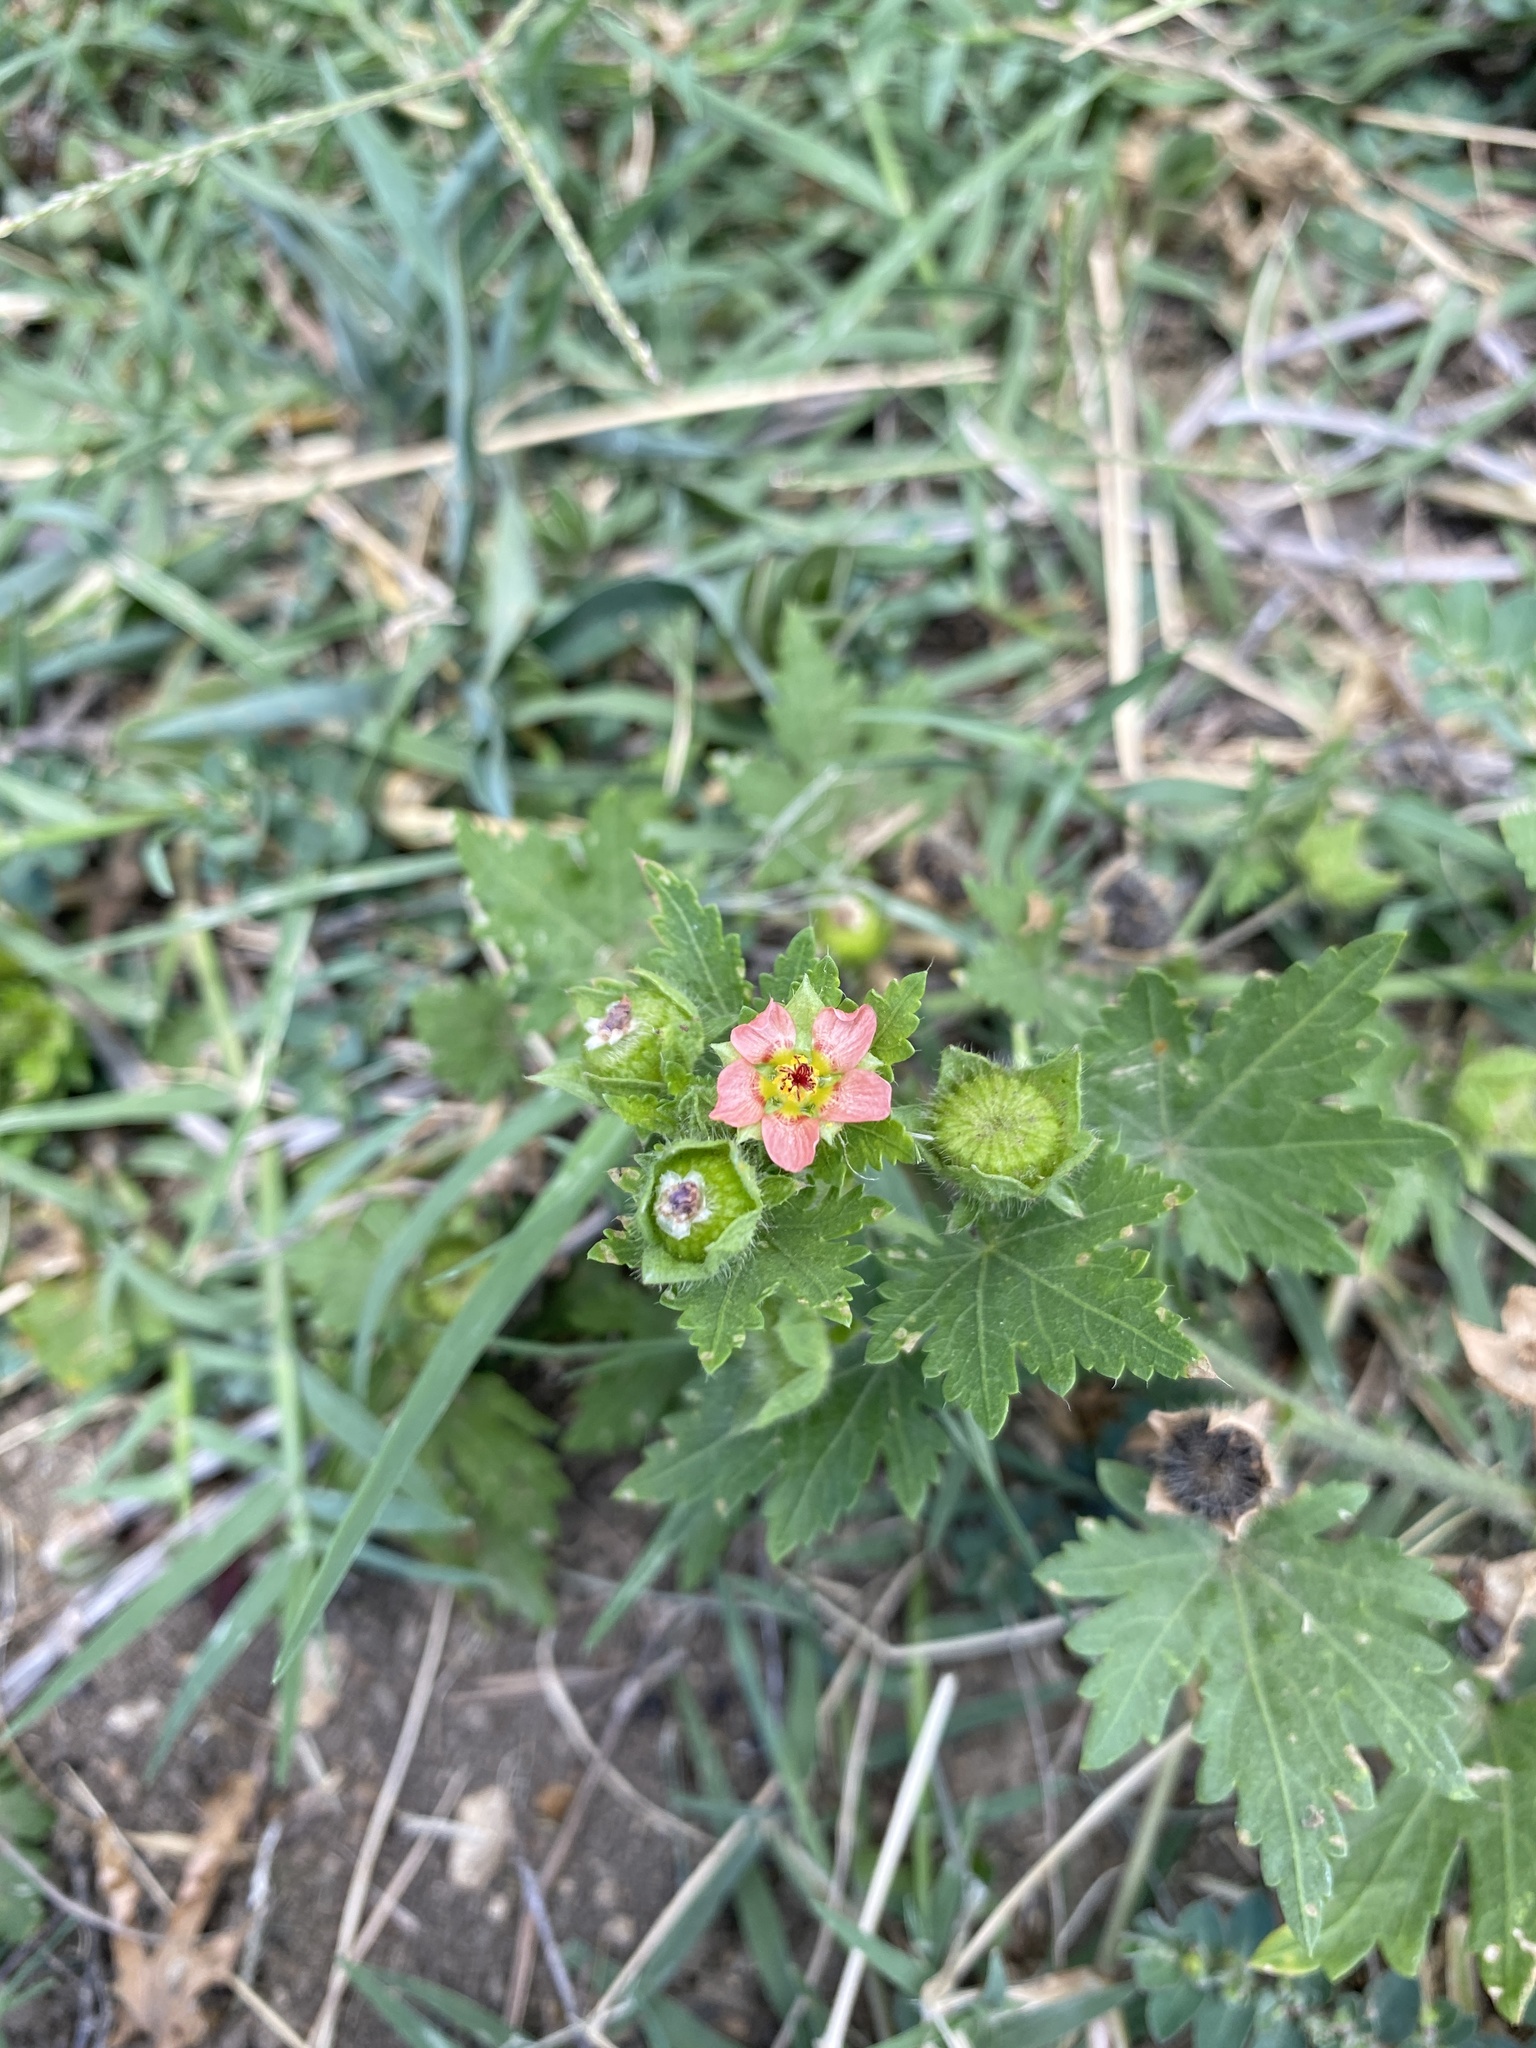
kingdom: Plantae
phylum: Tracheophyta
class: Magnoliopsida
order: Malvales
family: Malvaceae
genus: Modiola
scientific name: Modiola caroliniana
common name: Carolina bristlemallow
